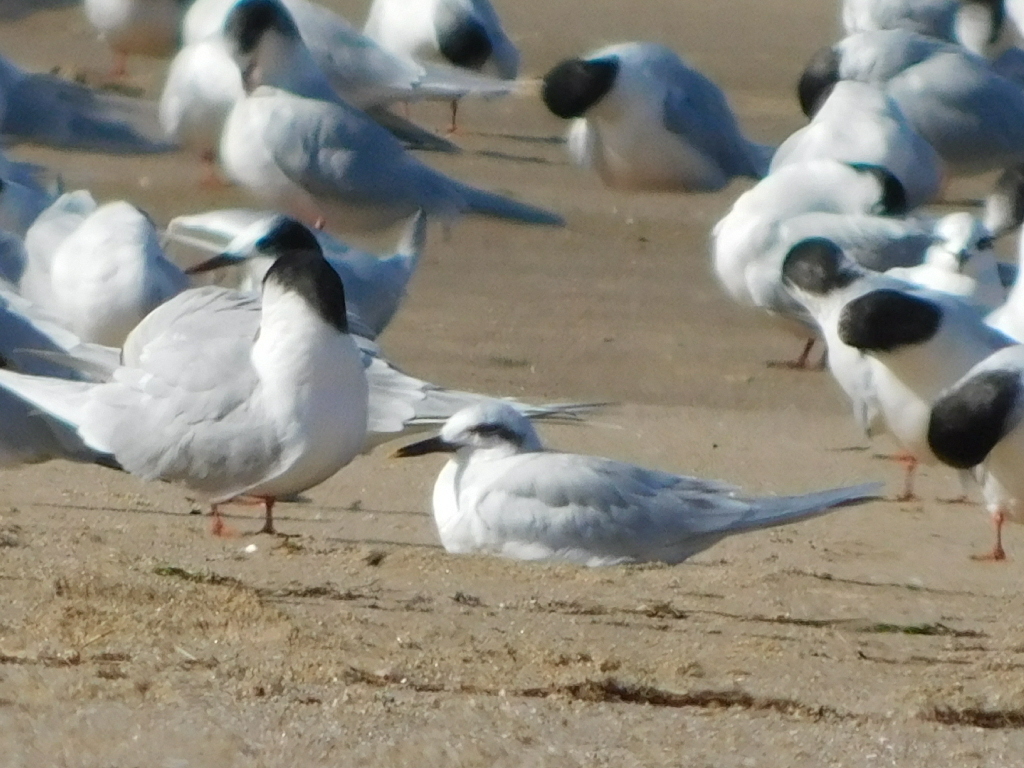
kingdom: Animalia
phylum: Chordata
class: Aves
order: Charadriiformes
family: Laridae
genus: Sterna
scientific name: Sterna trudeaui
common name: Snowy-crowned tern
